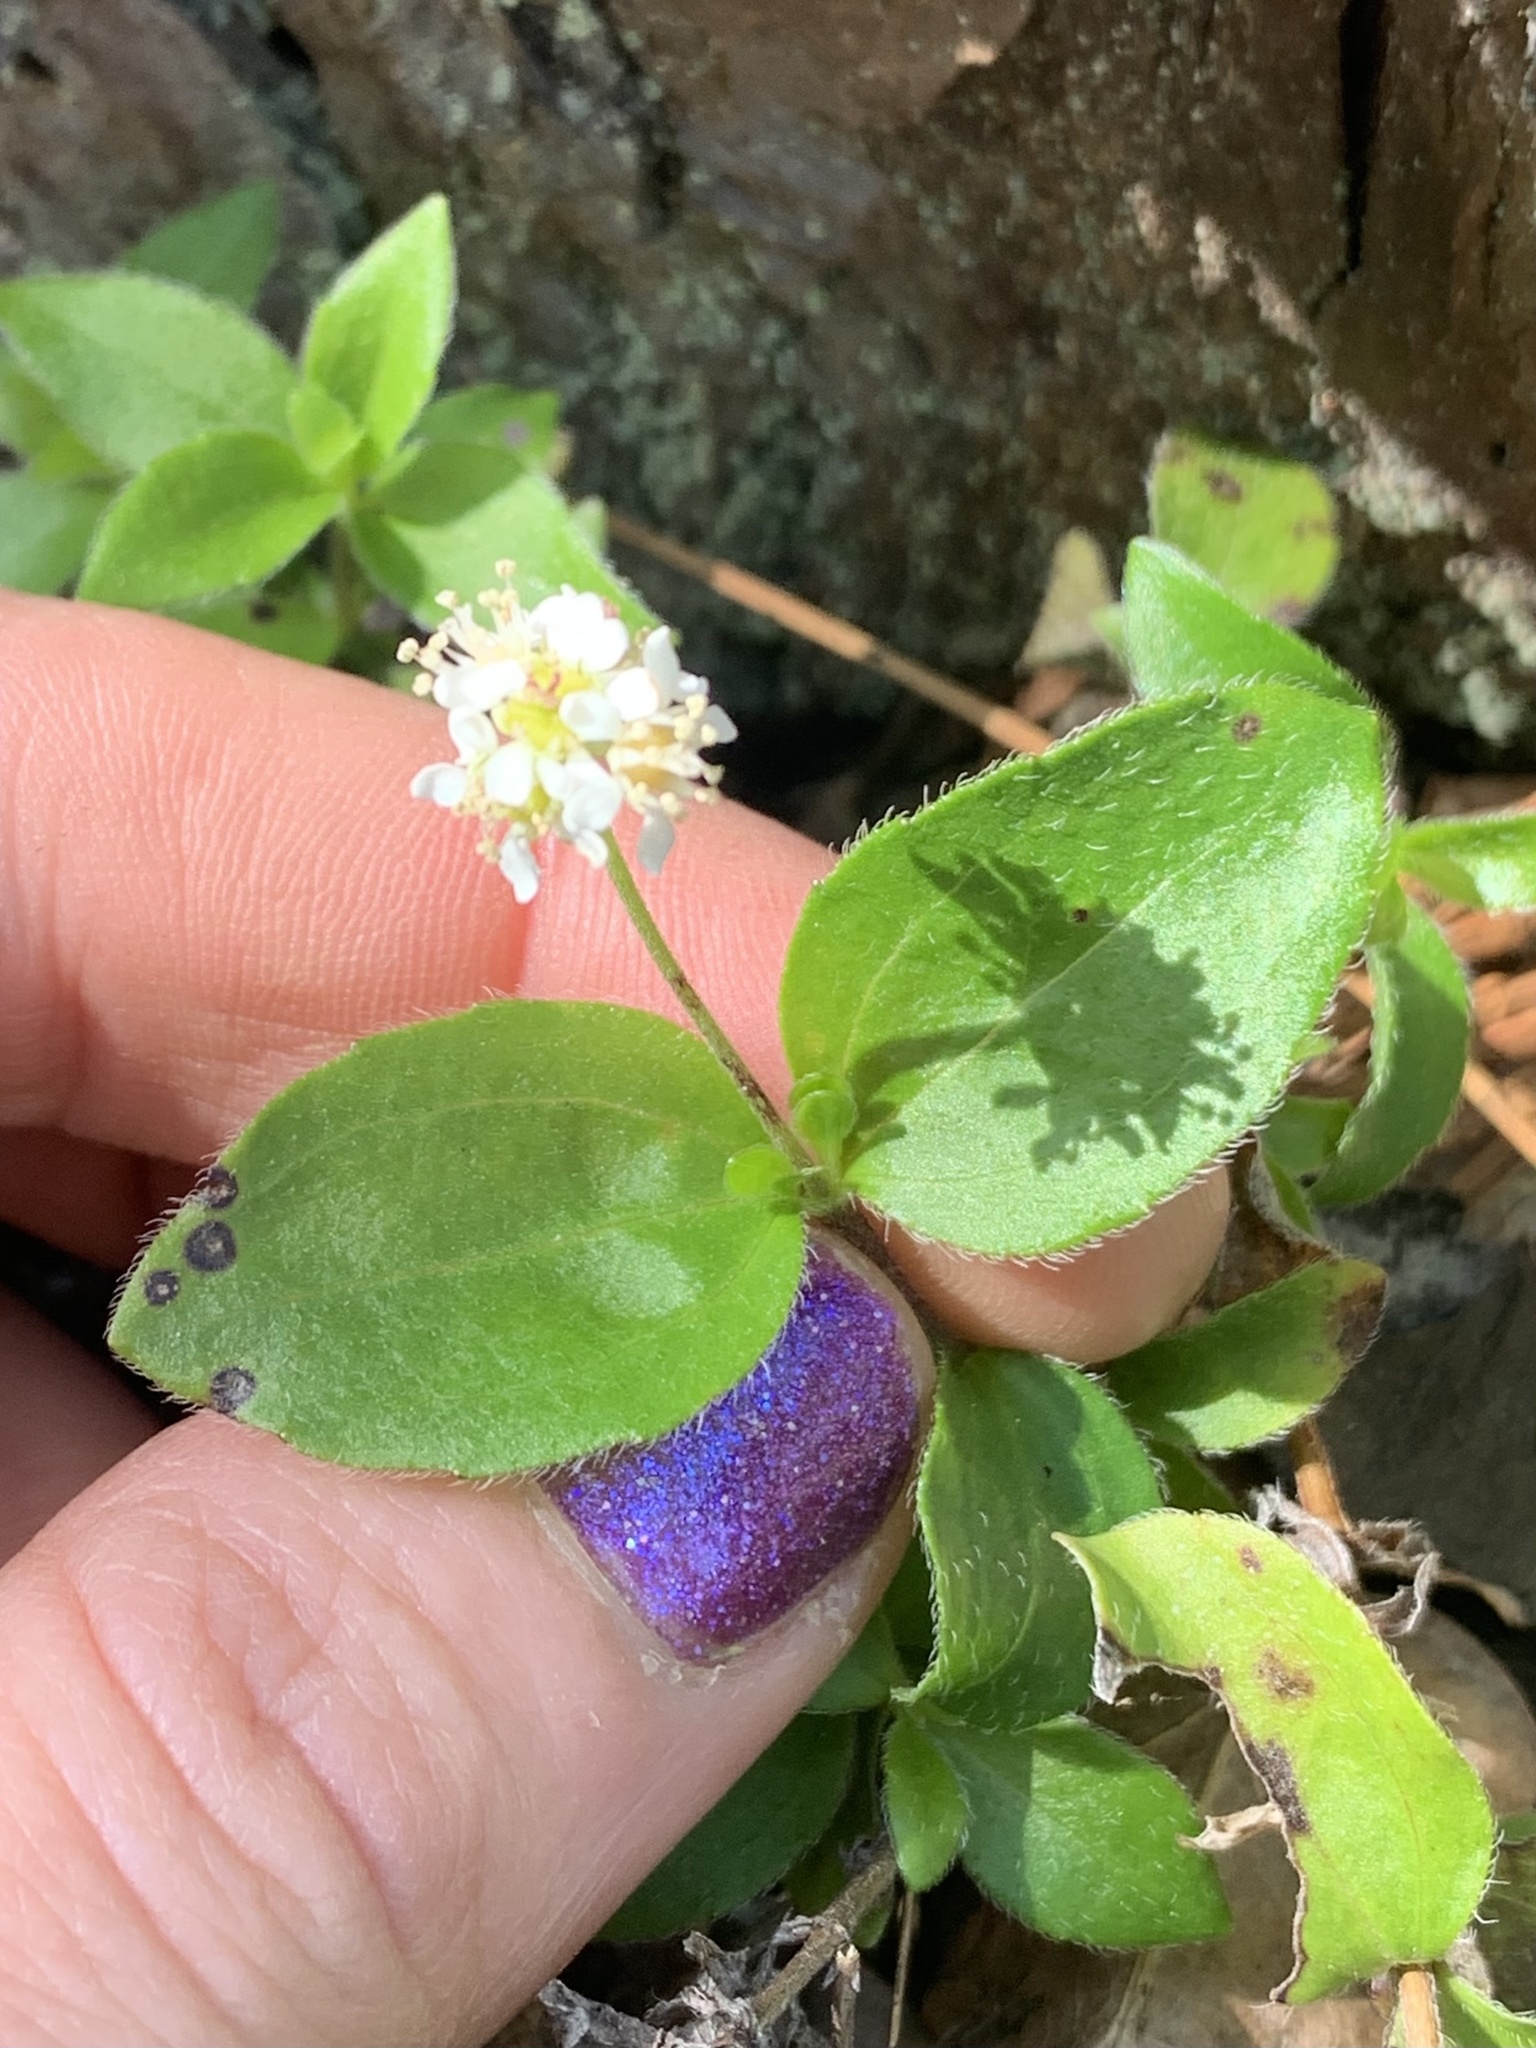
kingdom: Plantae
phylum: Tracheophyta
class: Magnoliopsida
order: Cornales
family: Hydrangeaceae
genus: Whipplea
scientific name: Whipplea modesta
